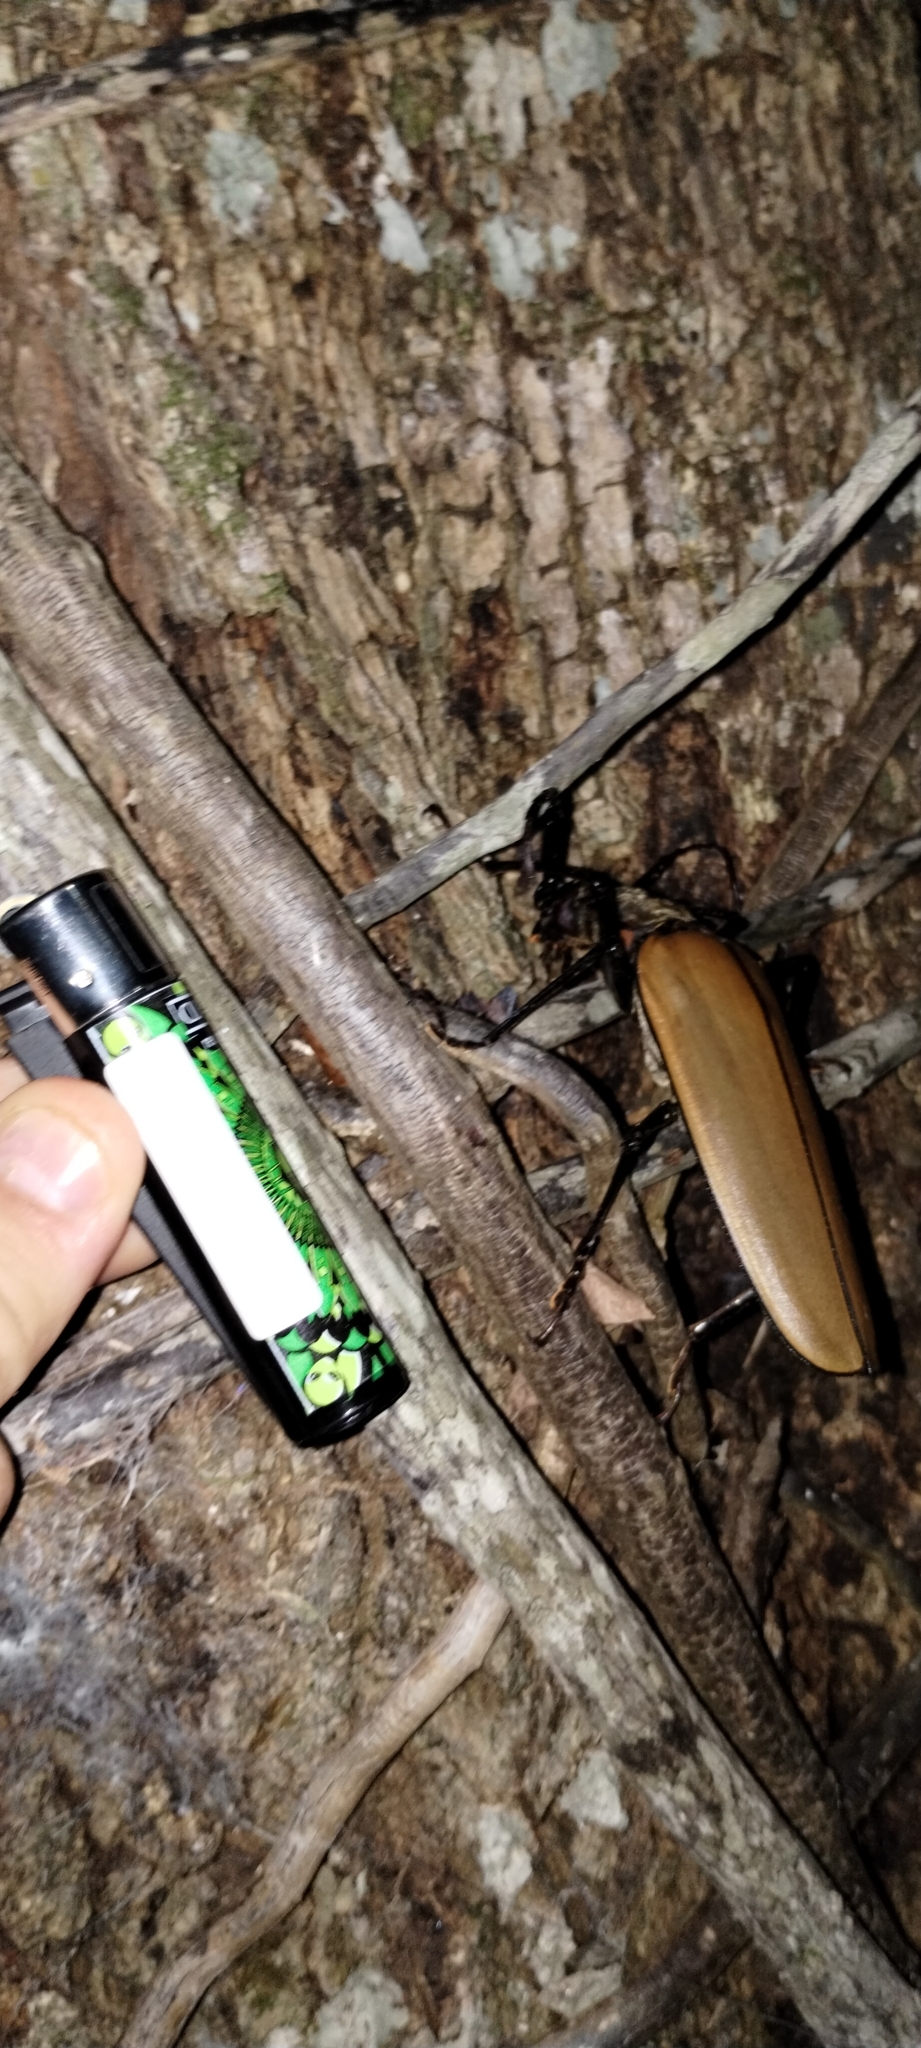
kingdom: Animalia
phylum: Arthropoda
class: Insecta
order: Coleoptera
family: Cerambycidae
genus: Enoplocerus
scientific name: Enoplocerus armillatus
